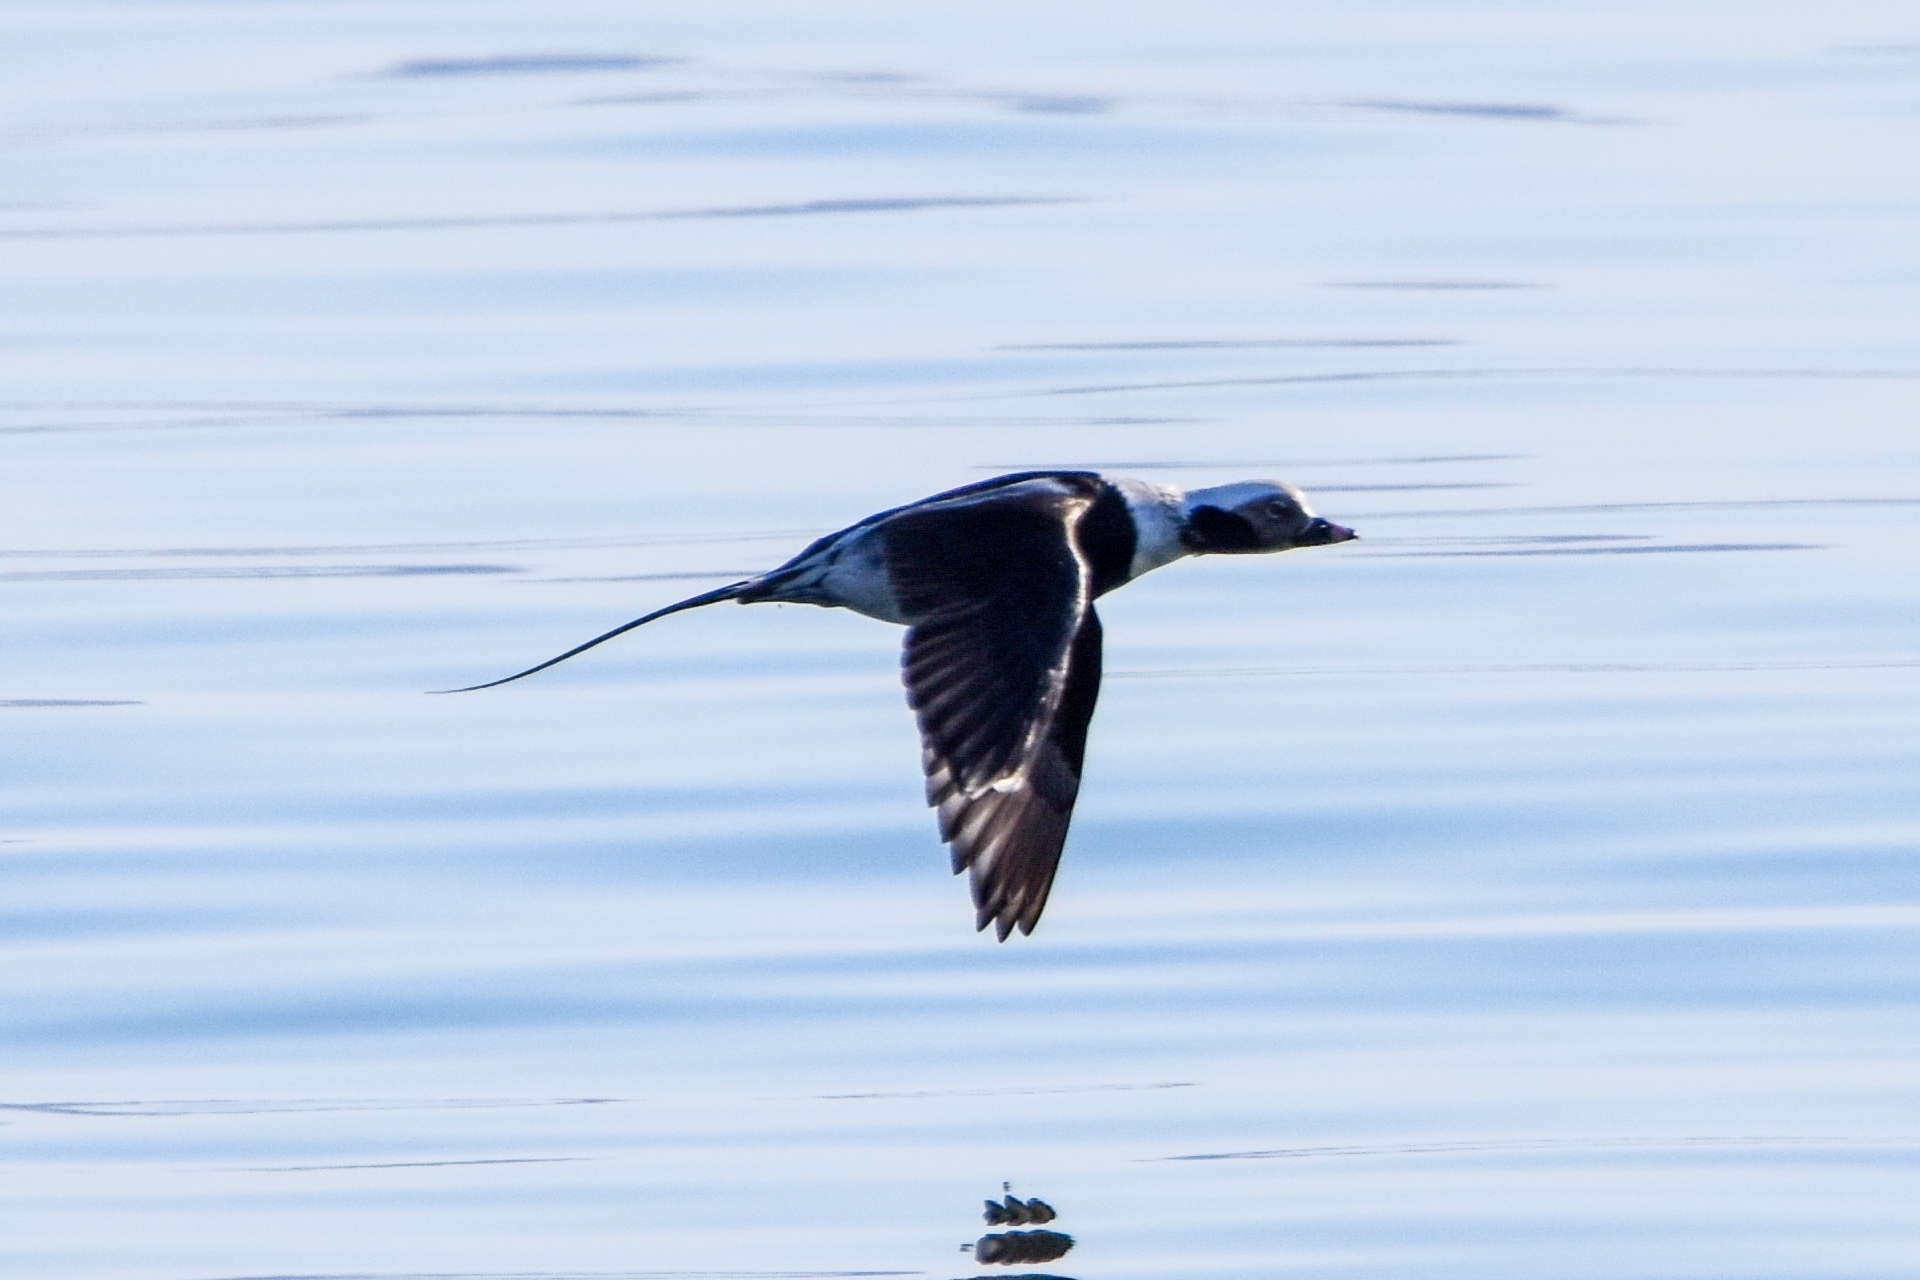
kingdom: Animalia
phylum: Chordata
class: Aves
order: Anseriformes
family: Anatidae
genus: Clangula
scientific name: Clangula hyemalis
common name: Long-tailed duck
